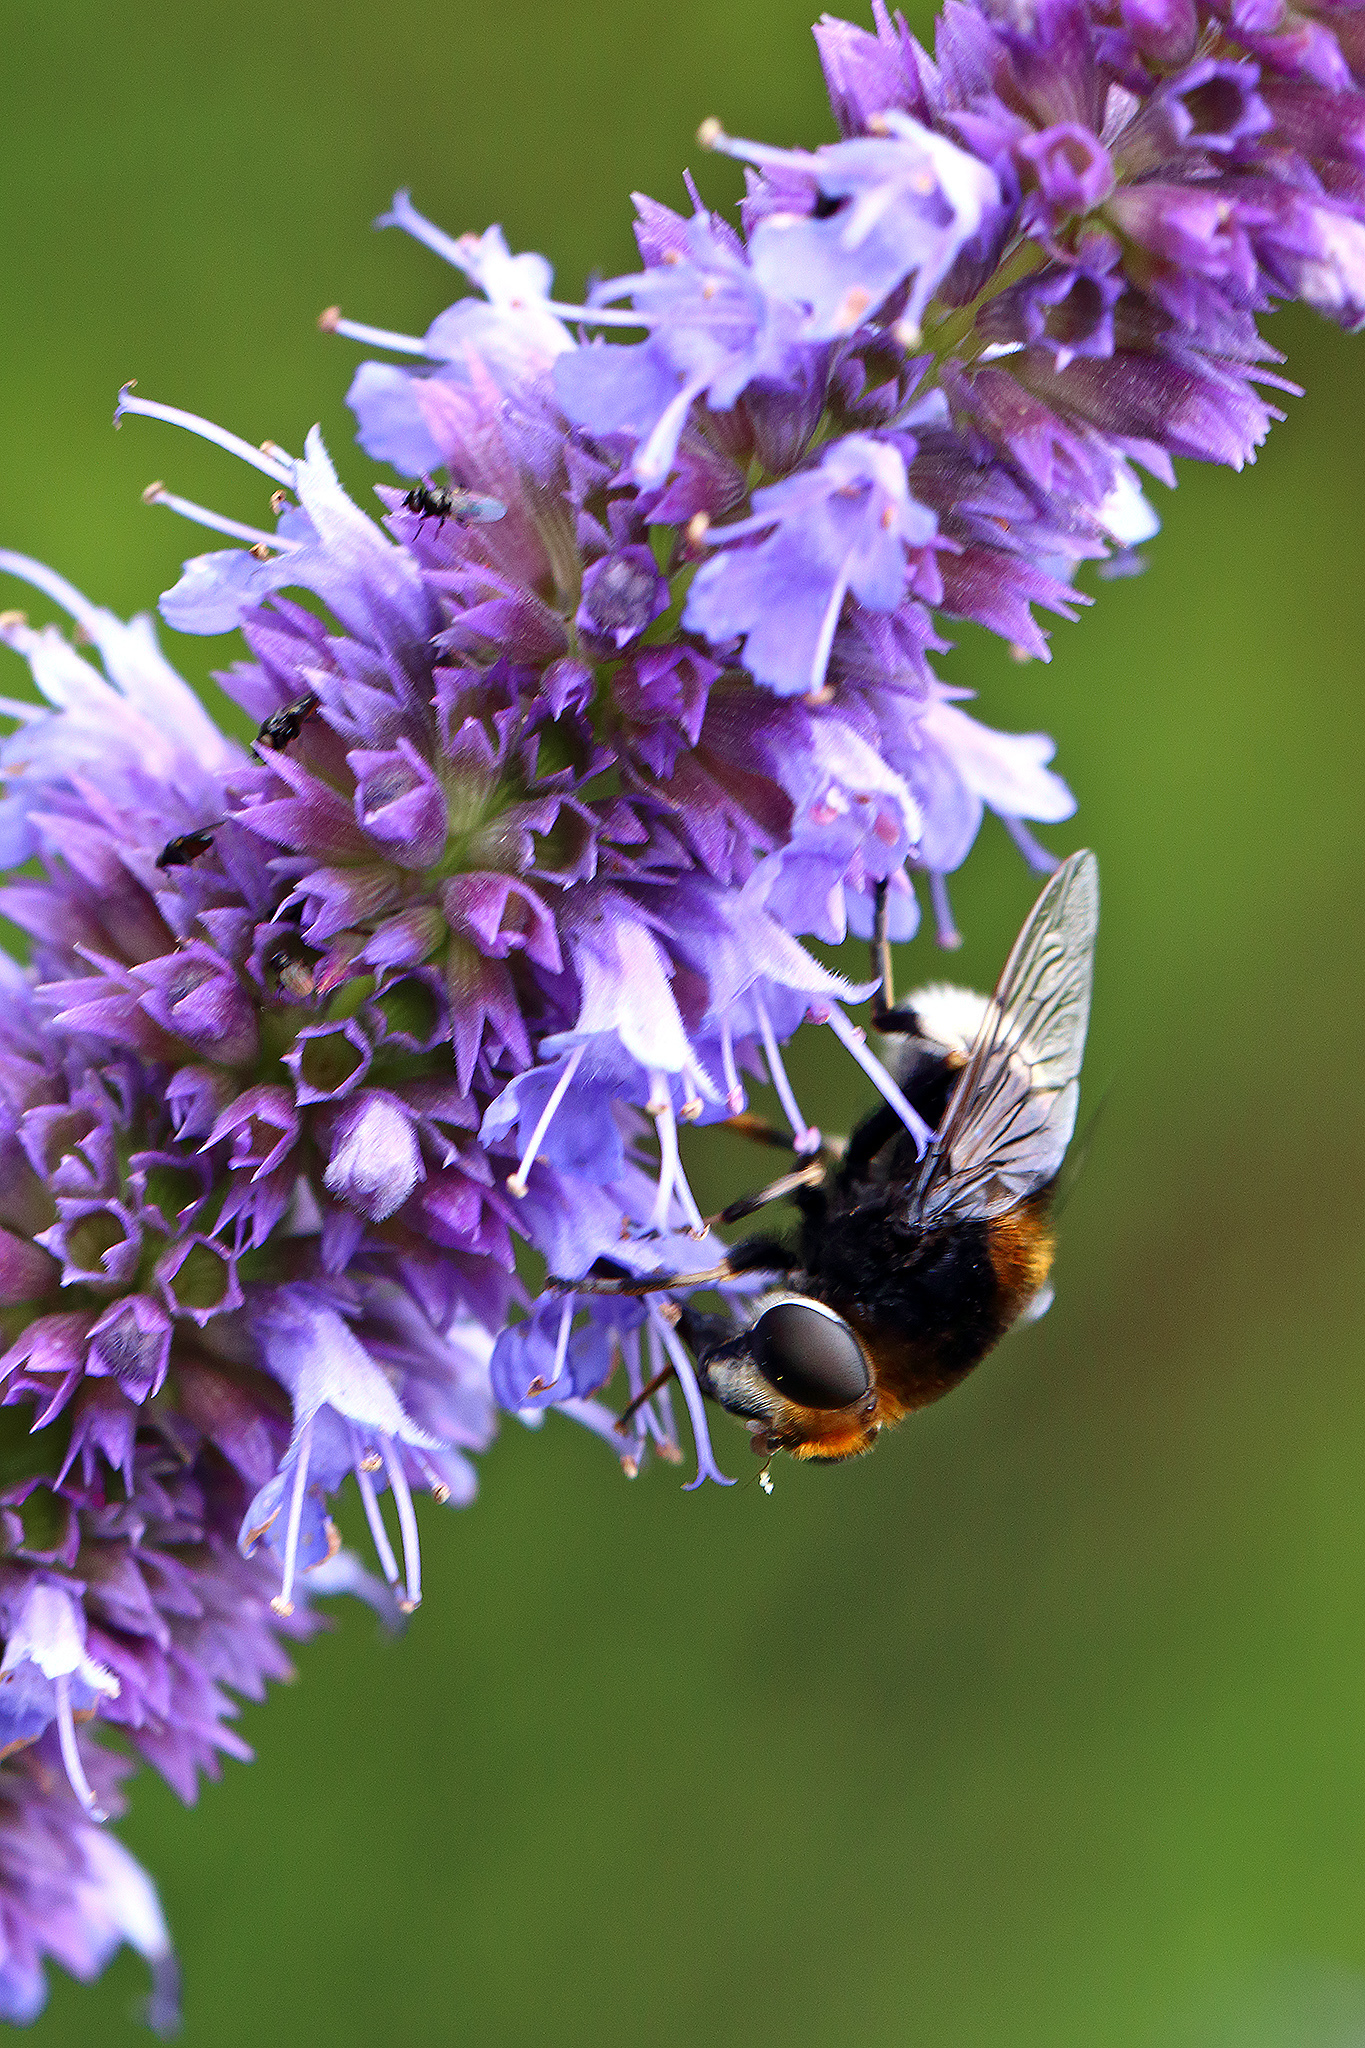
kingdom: Animalia
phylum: Arthropoda
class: Insecta
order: Diptera
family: Syrphidae
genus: Eristalis
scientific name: Eristalis intricaria
